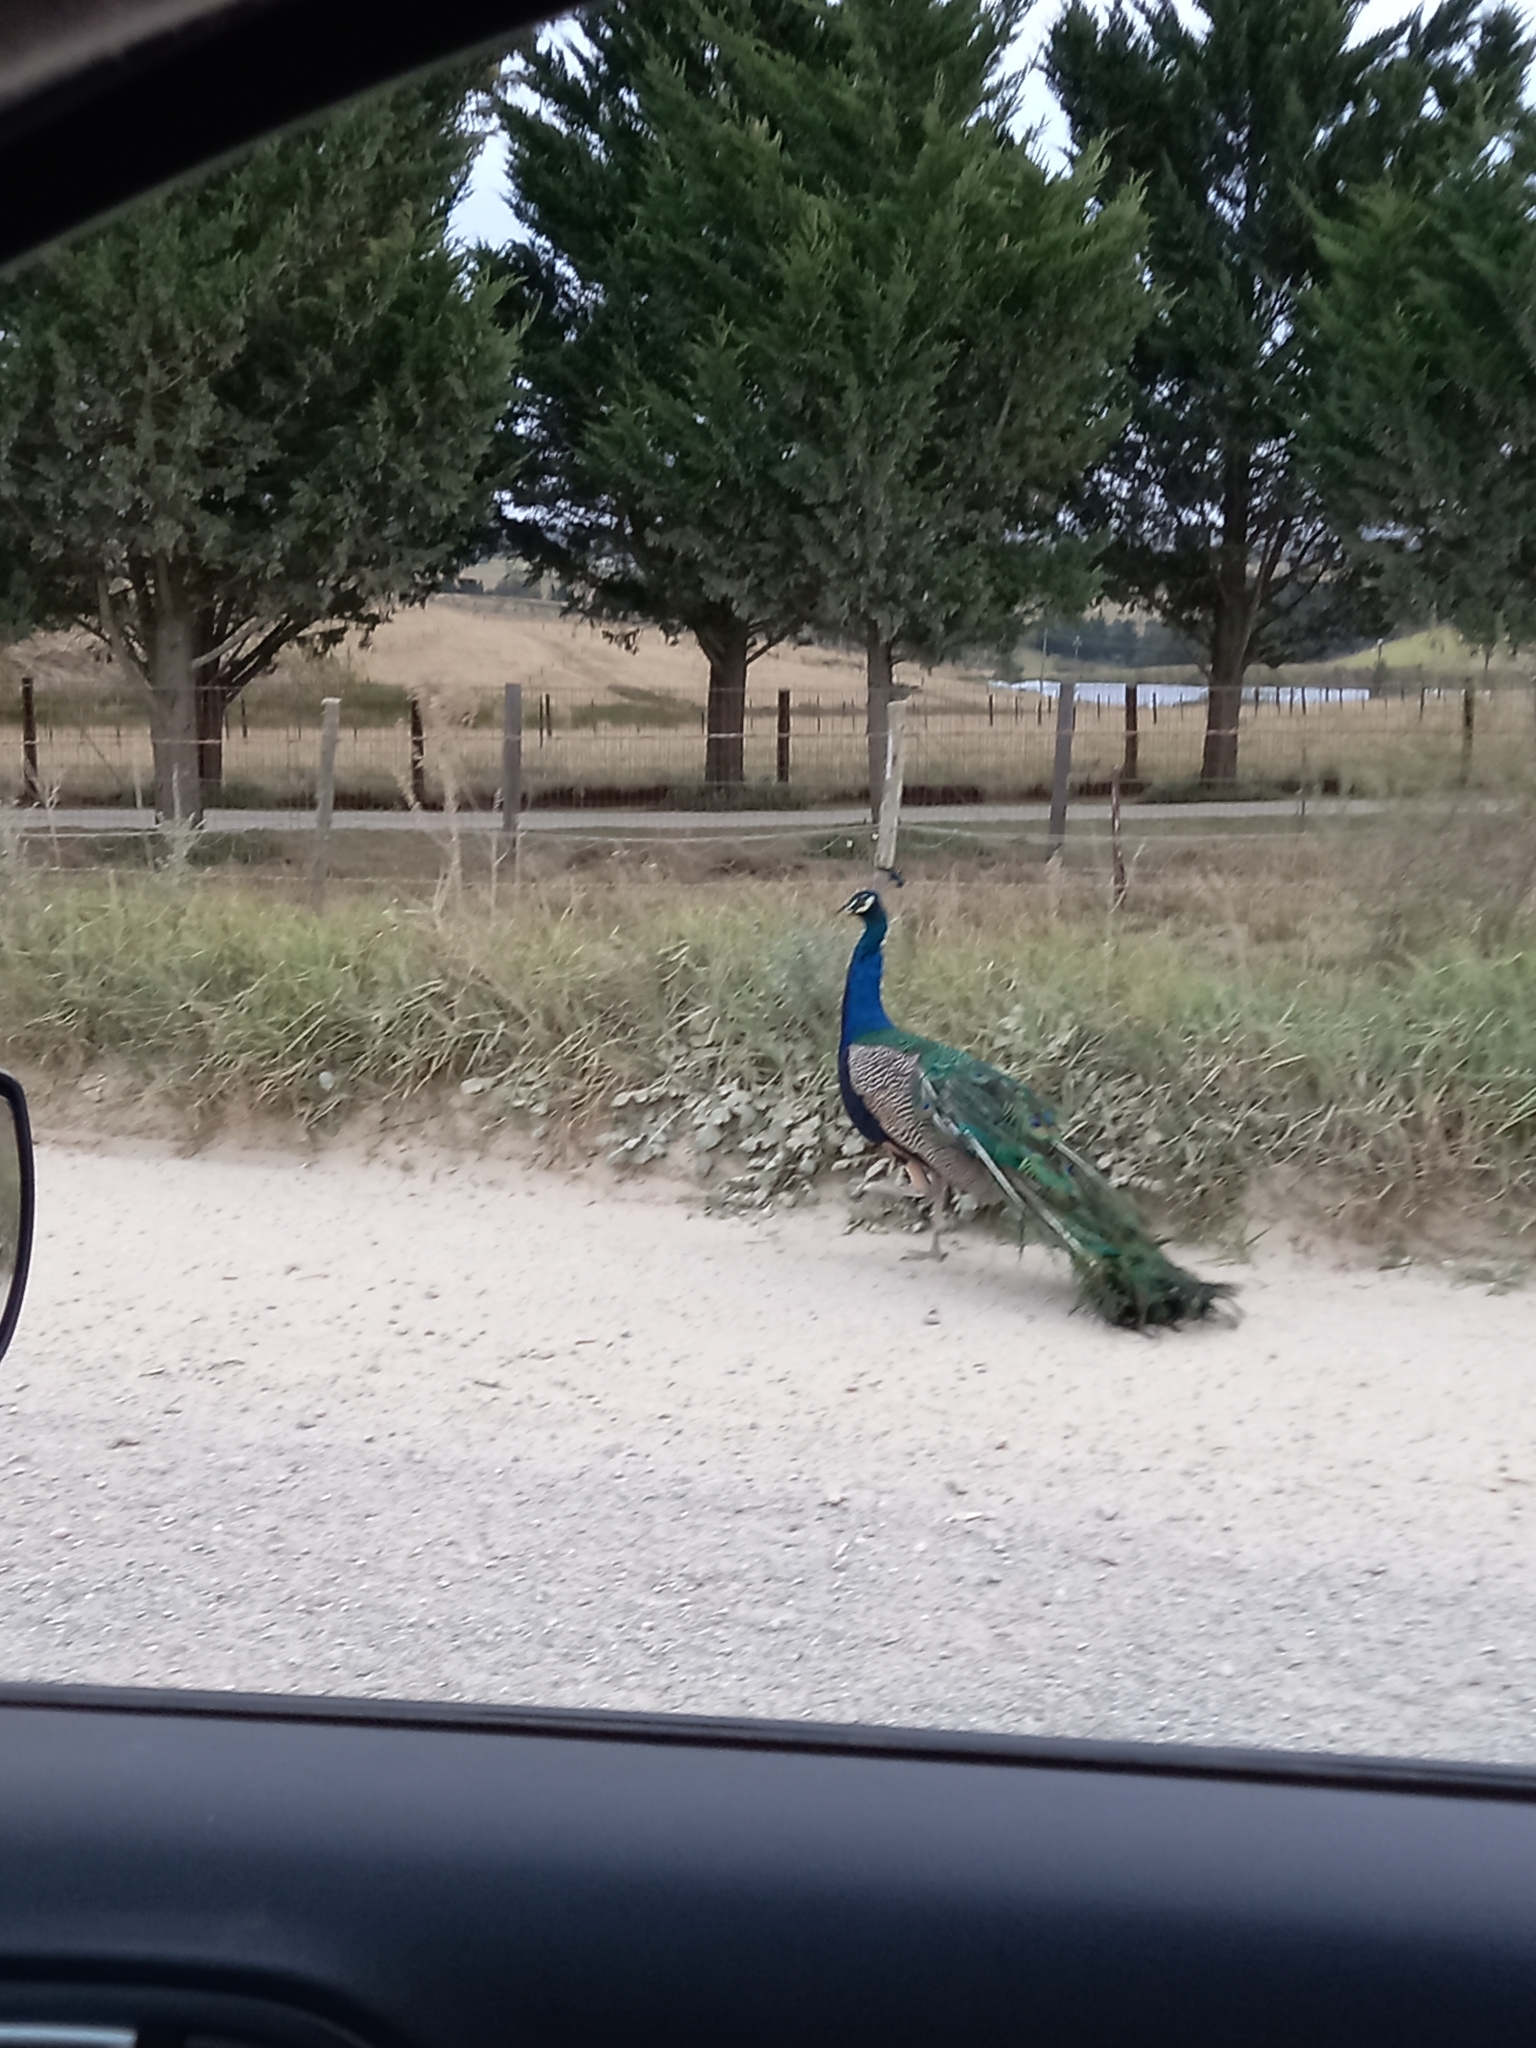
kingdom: Animalia
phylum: Chordata
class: Aves
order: Galliformes
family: Phasianidae
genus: Pavo
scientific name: Pavo cristatus
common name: Indian peafowl
